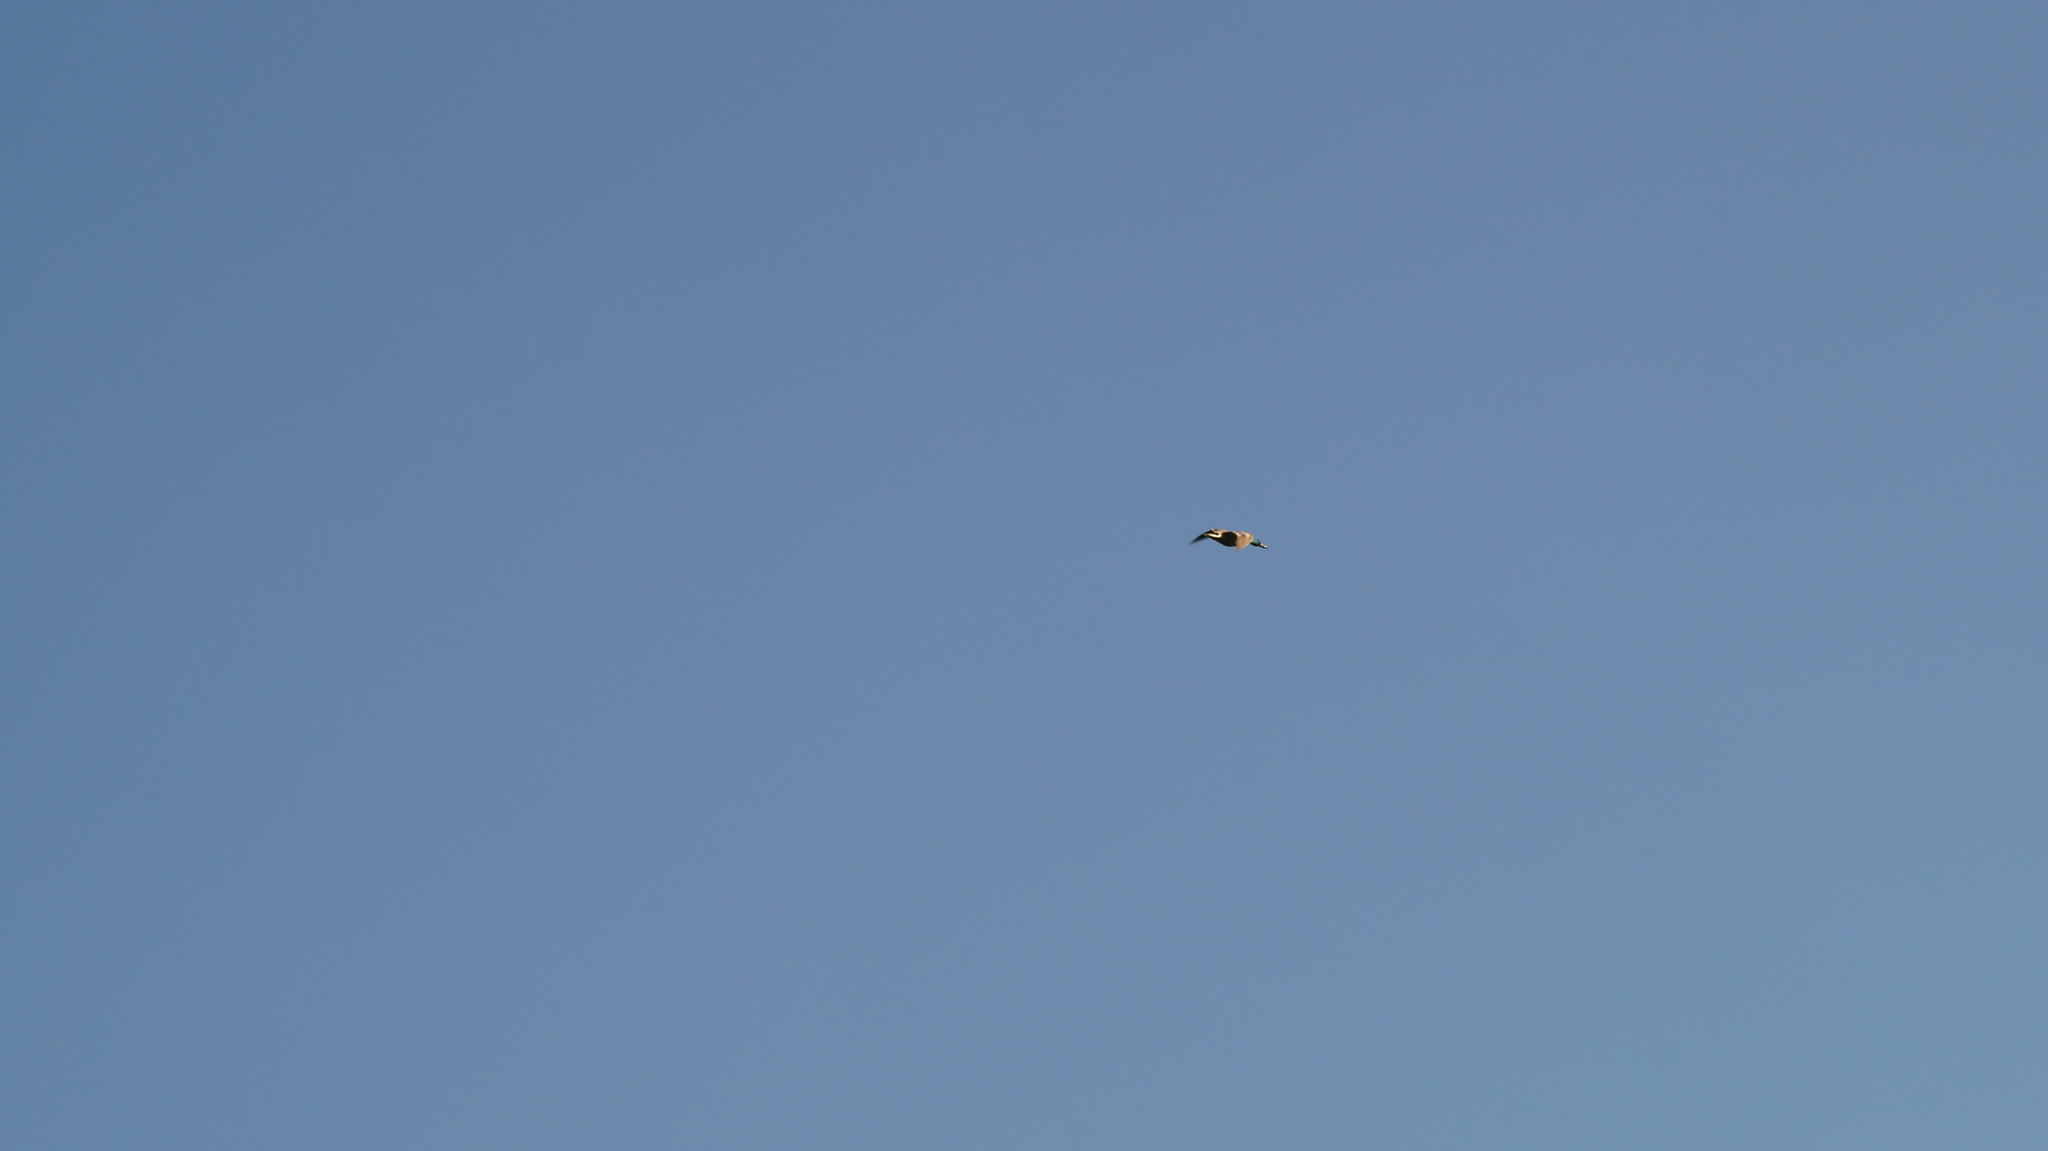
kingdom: Animalia
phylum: Chordata
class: Aves
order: Anseriformes
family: Anatidae
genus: Anas
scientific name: Anas platyrhynchos
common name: Mallard
